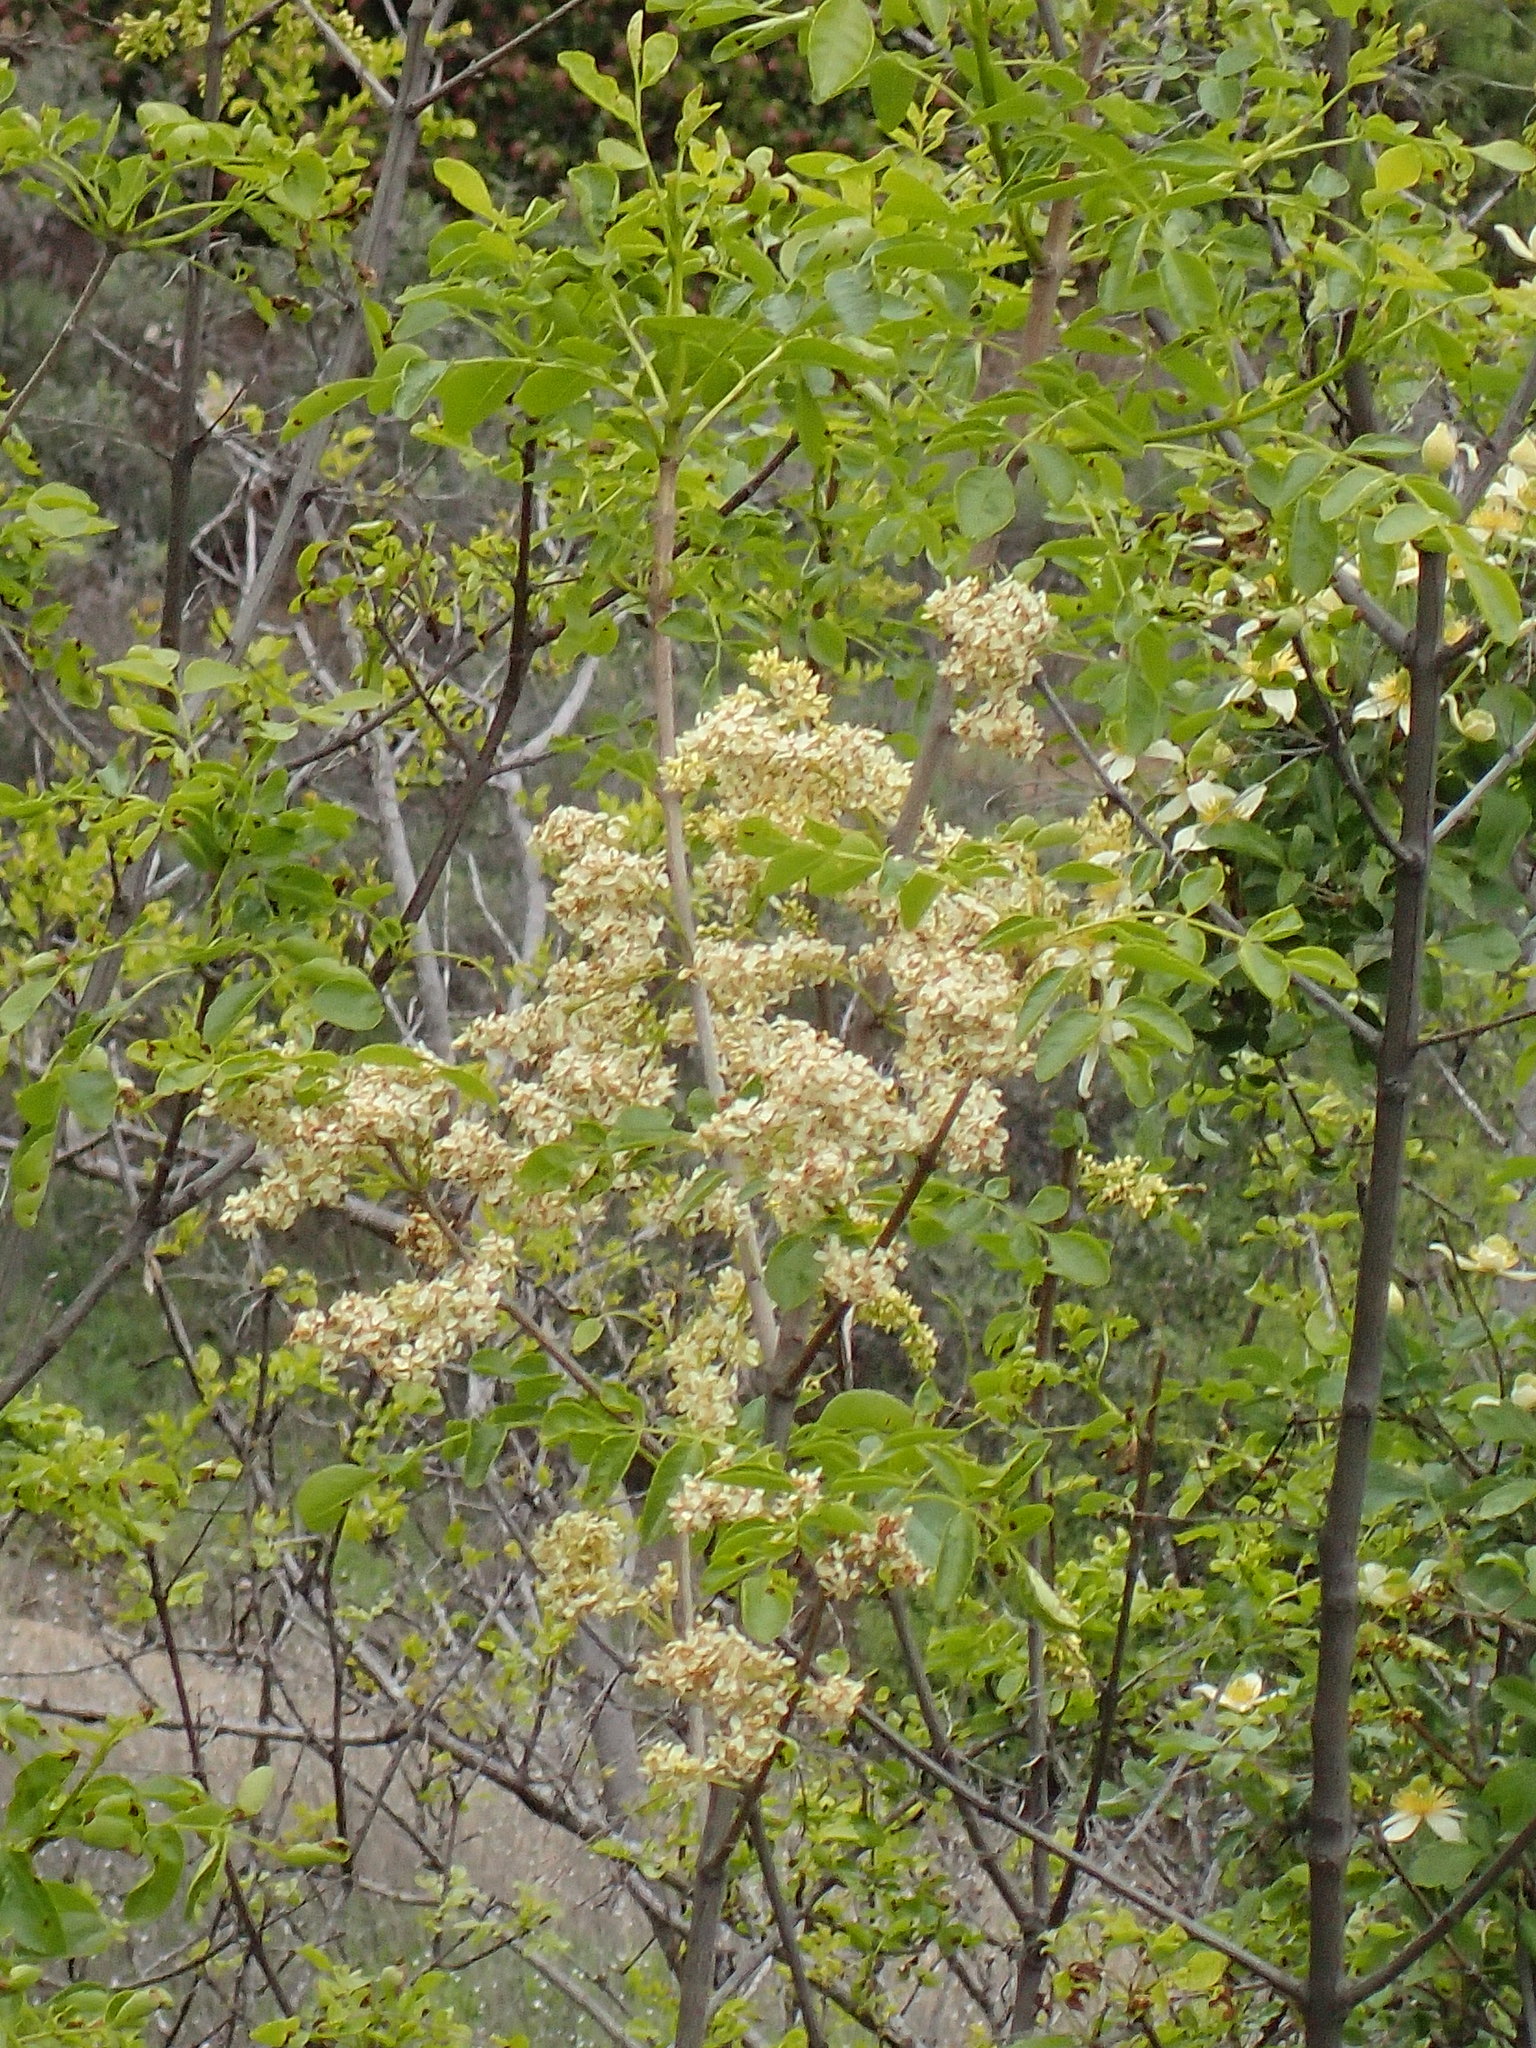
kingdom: Plantae
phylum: Tracheophyta
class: Magnoliopsida
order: Lamiales
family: Oleaceae
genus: Fraxinus
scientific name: Fraxinus dipetala
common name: California ash
